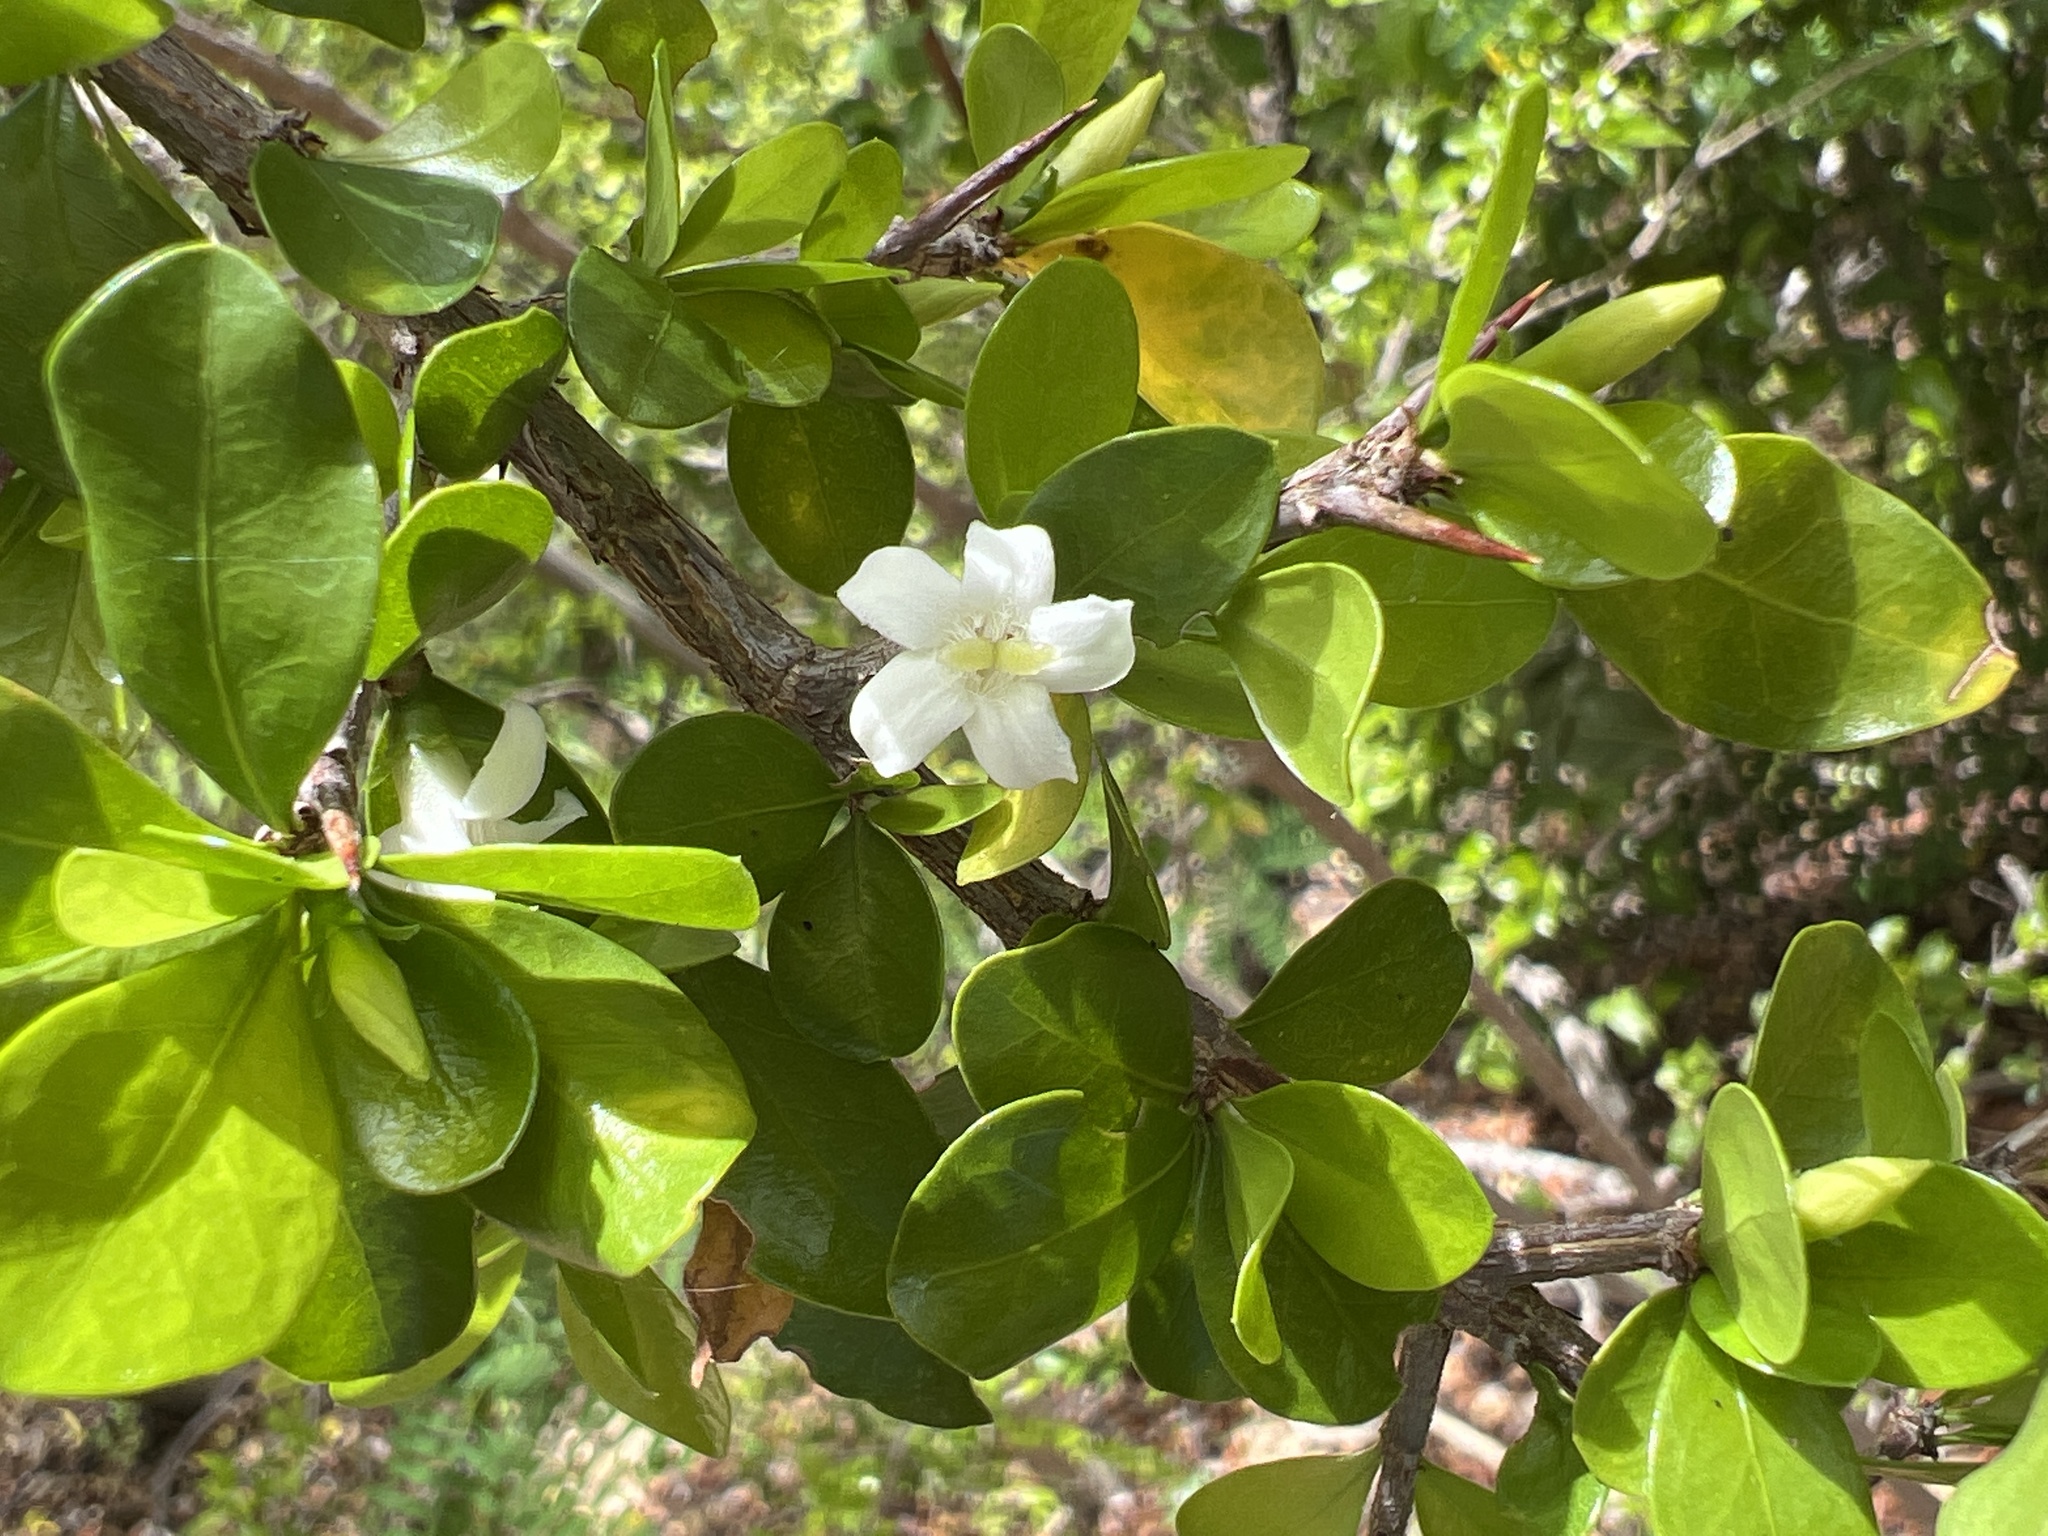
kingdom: Plantae
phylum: Tracheophyta
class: Magnoliopsida
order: Gentianales
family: Rubiaceae
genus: Randia
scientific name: Randia aculeata
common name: Inkberry
